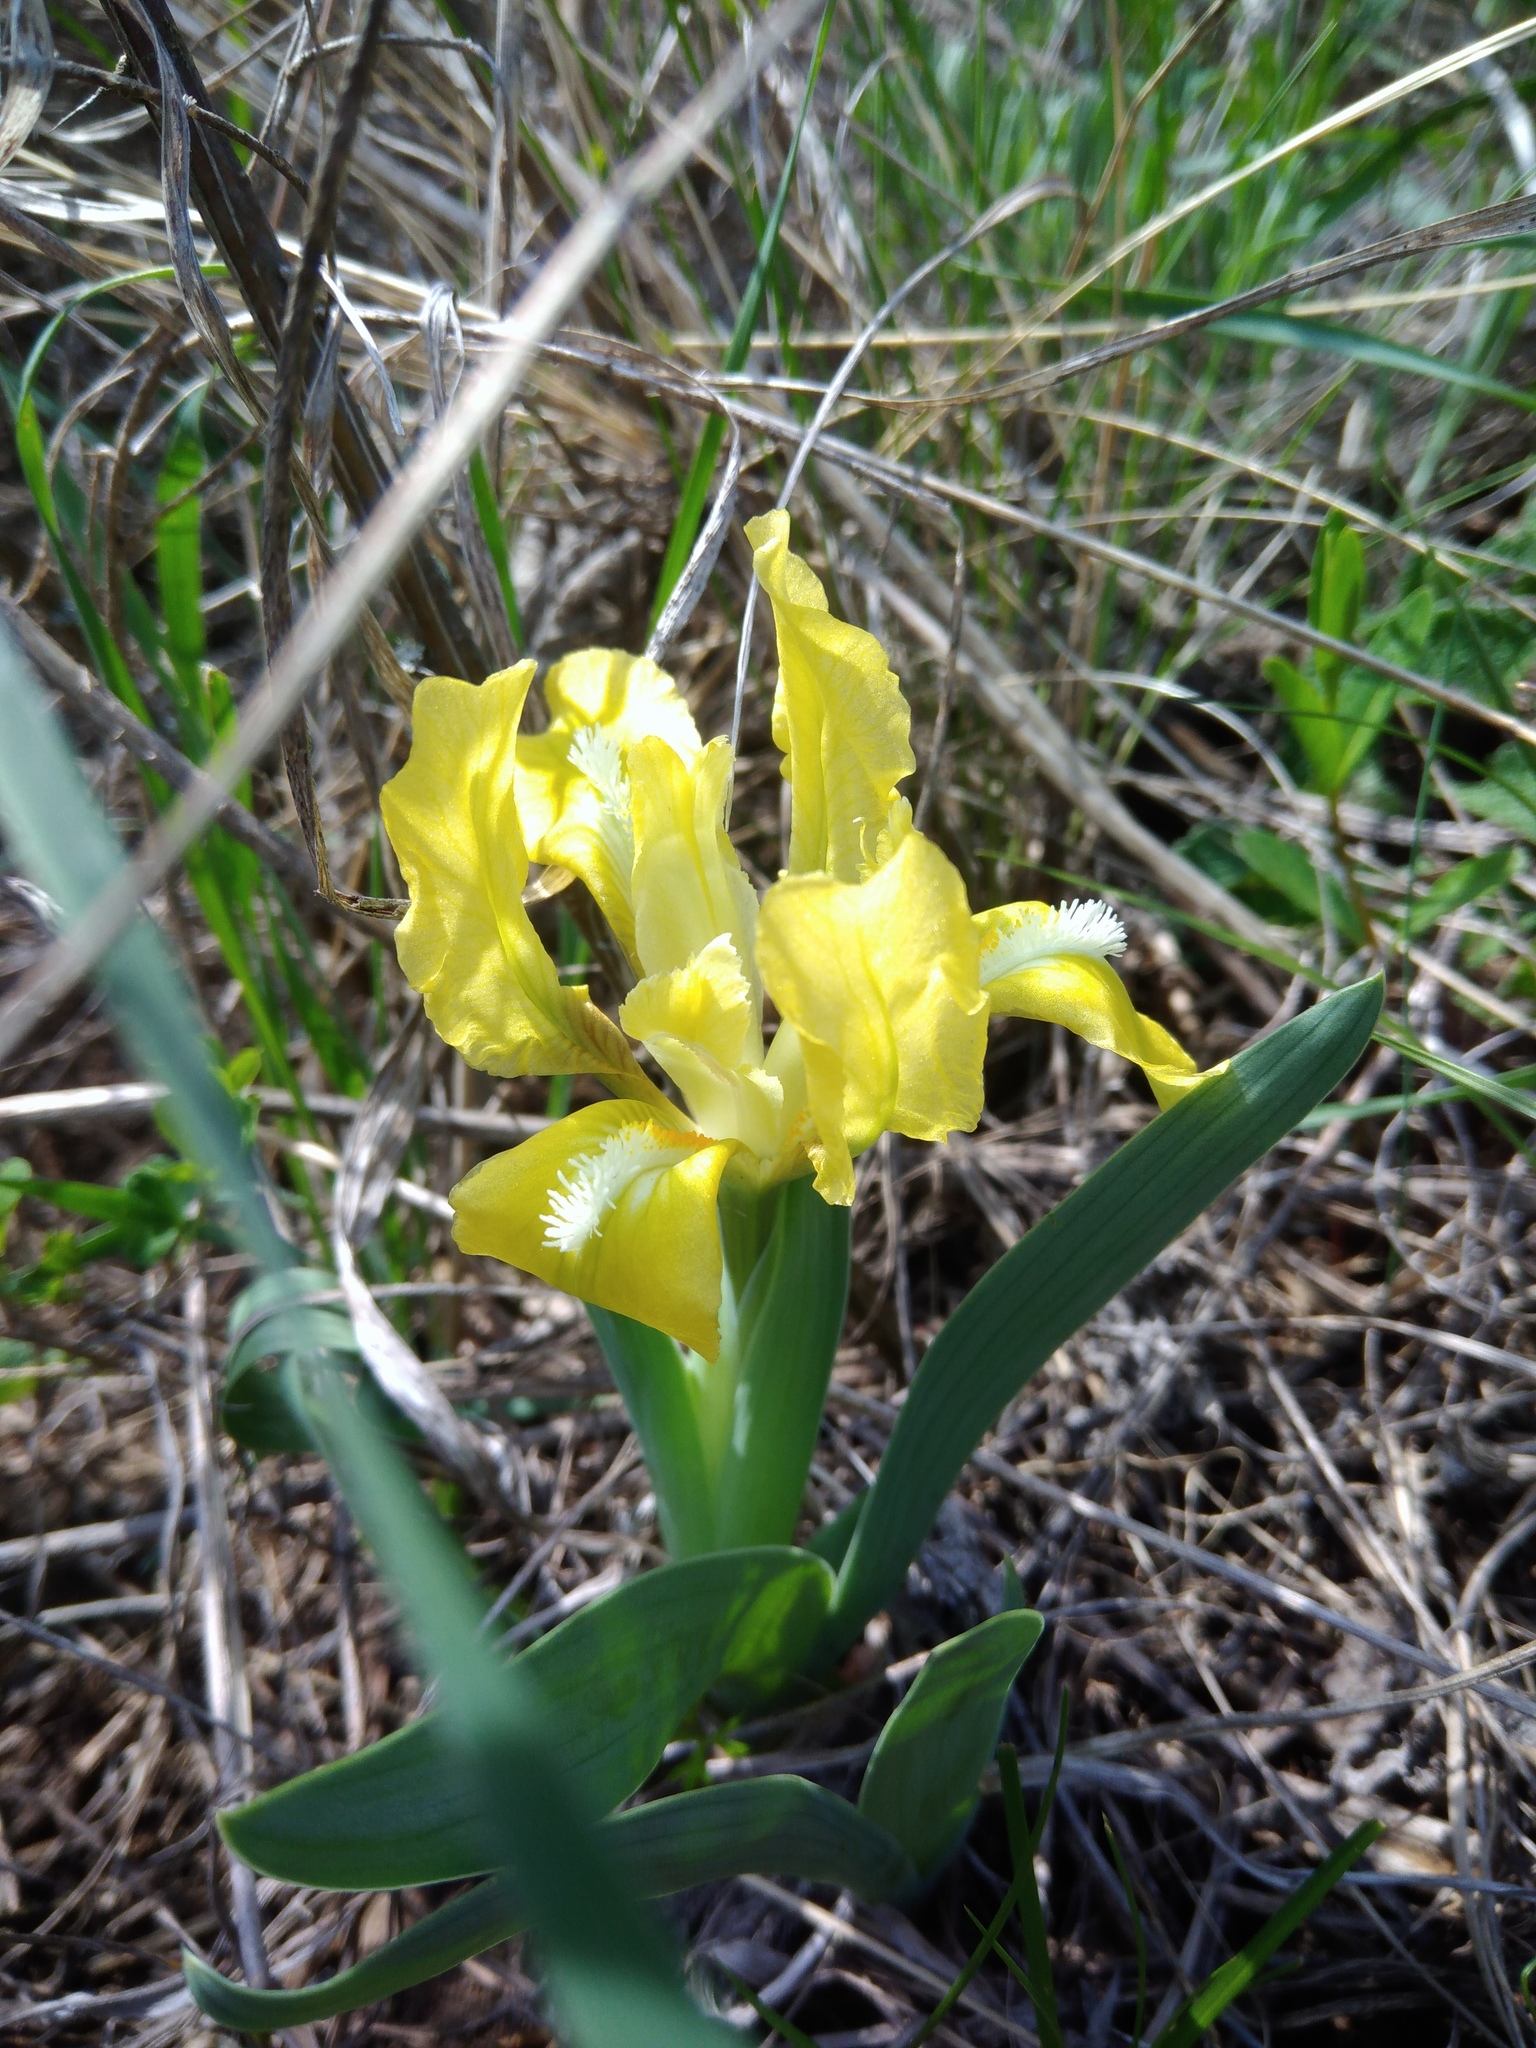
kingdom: Plantae
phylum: Tracheophyta
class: Liliopsida
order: Asparagales
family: Iridaceae
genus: Iris
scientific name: Iris pumila
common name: Dwarf iris
